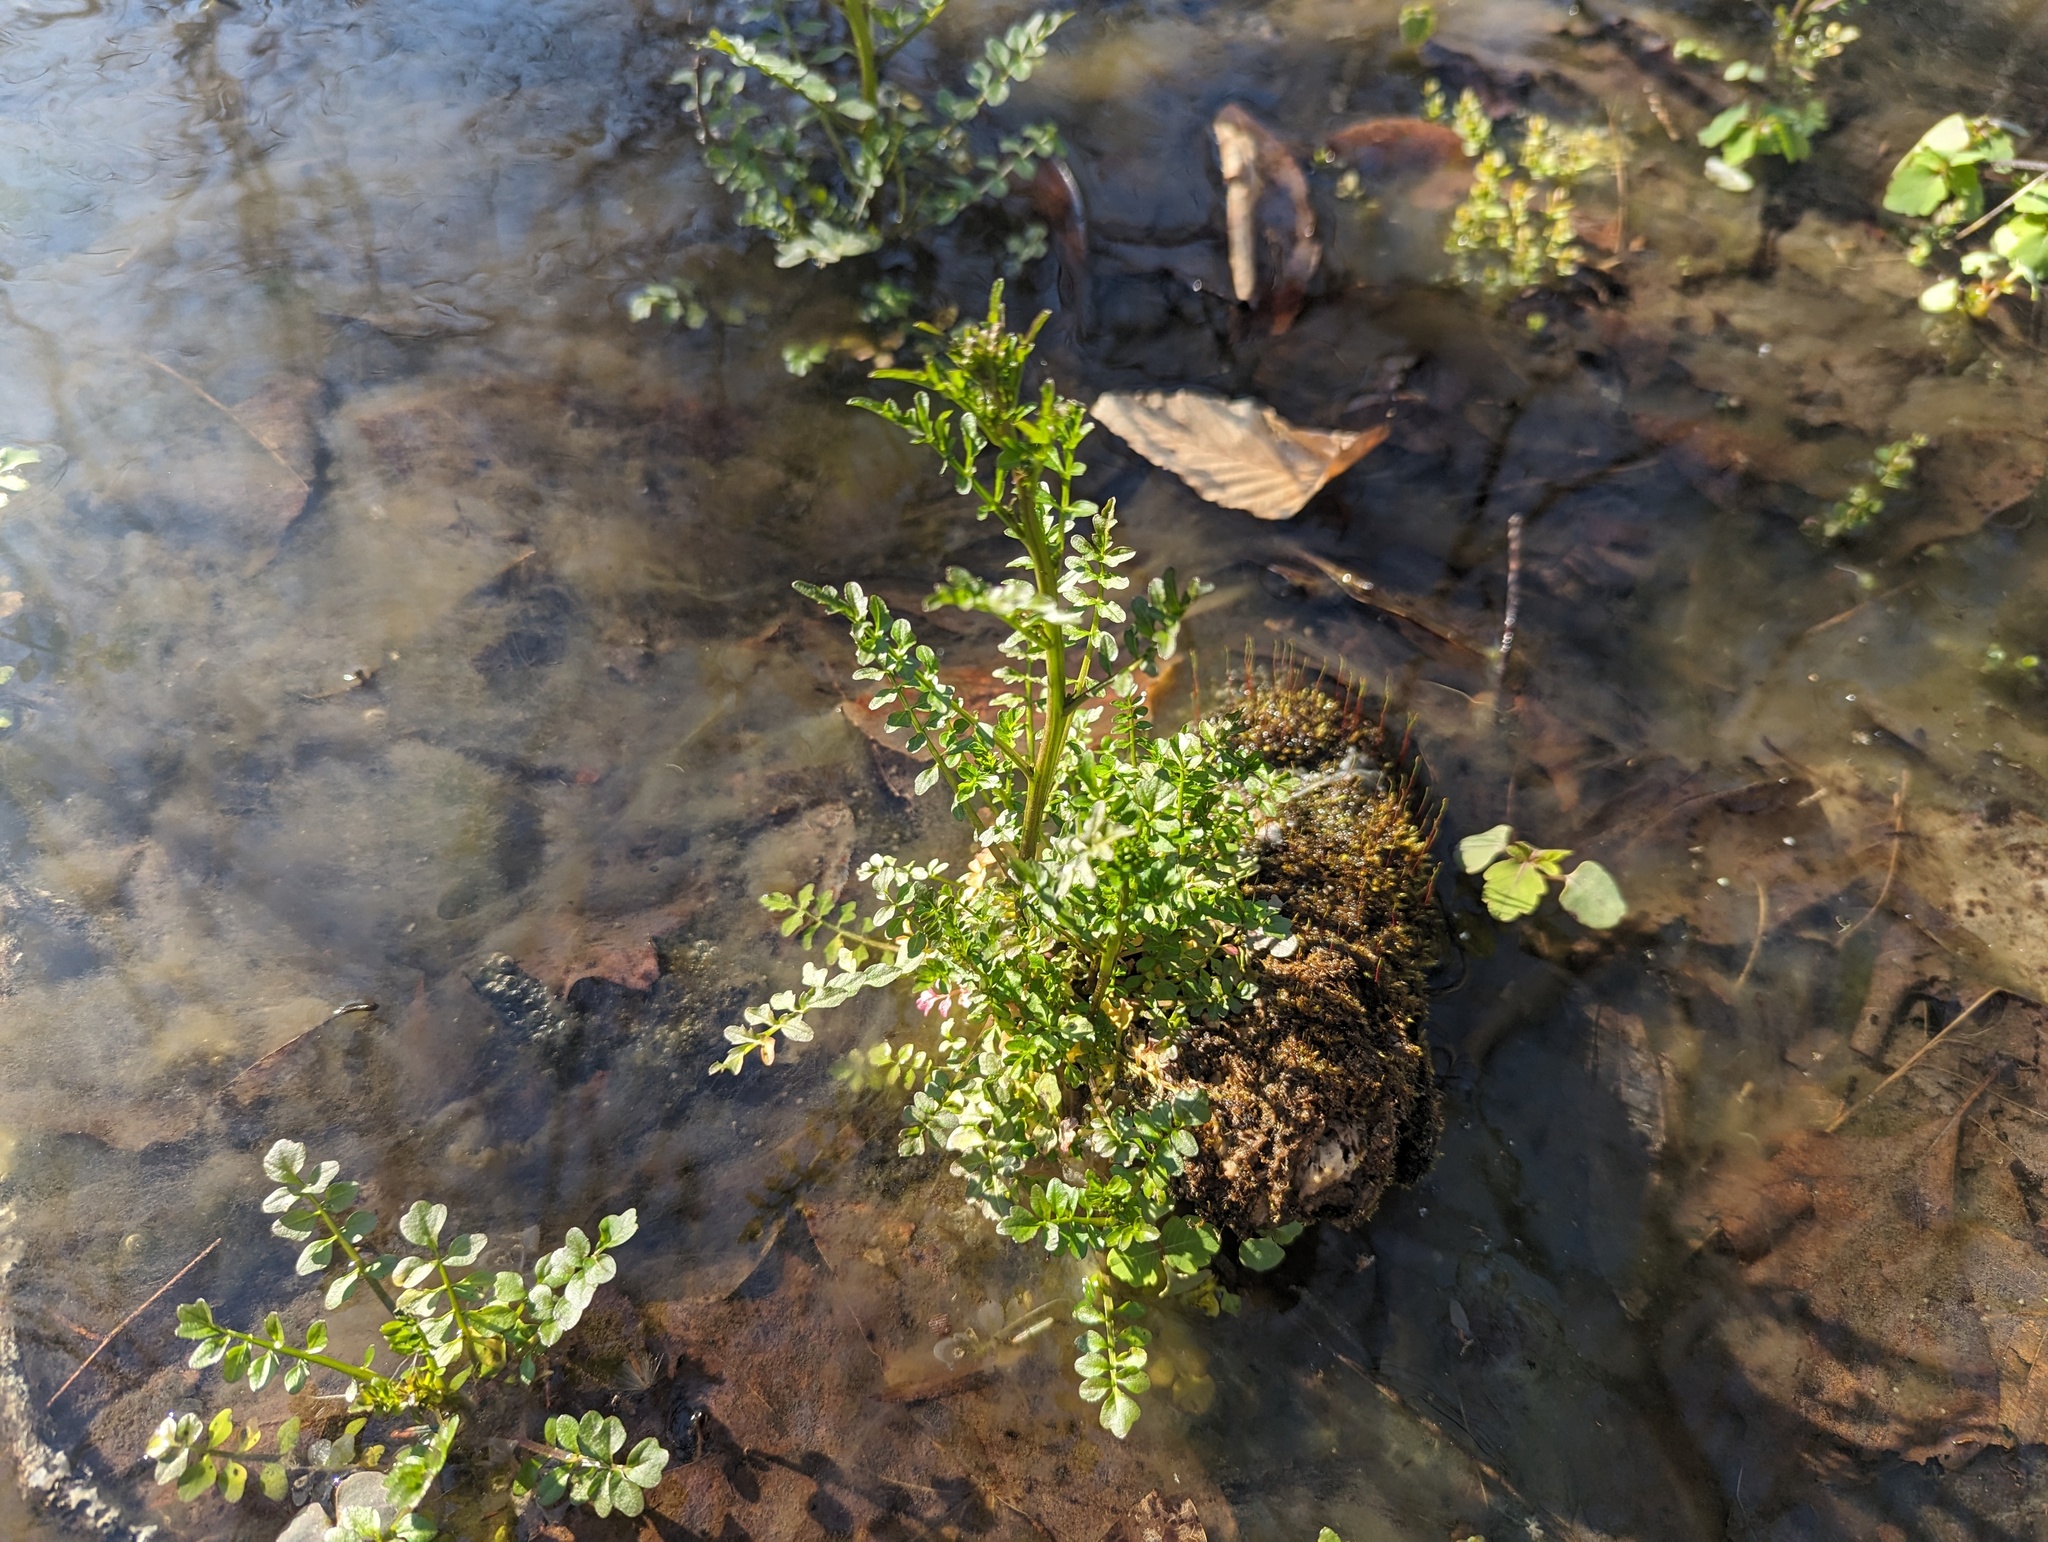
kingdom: Plantae
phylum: Tracheophyta
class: Magnoliopsida
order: Brassicales
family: Brassicaceae
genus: Cardamine
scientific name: Cardamine pensylvanica
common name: Pennsylvania bittercress
